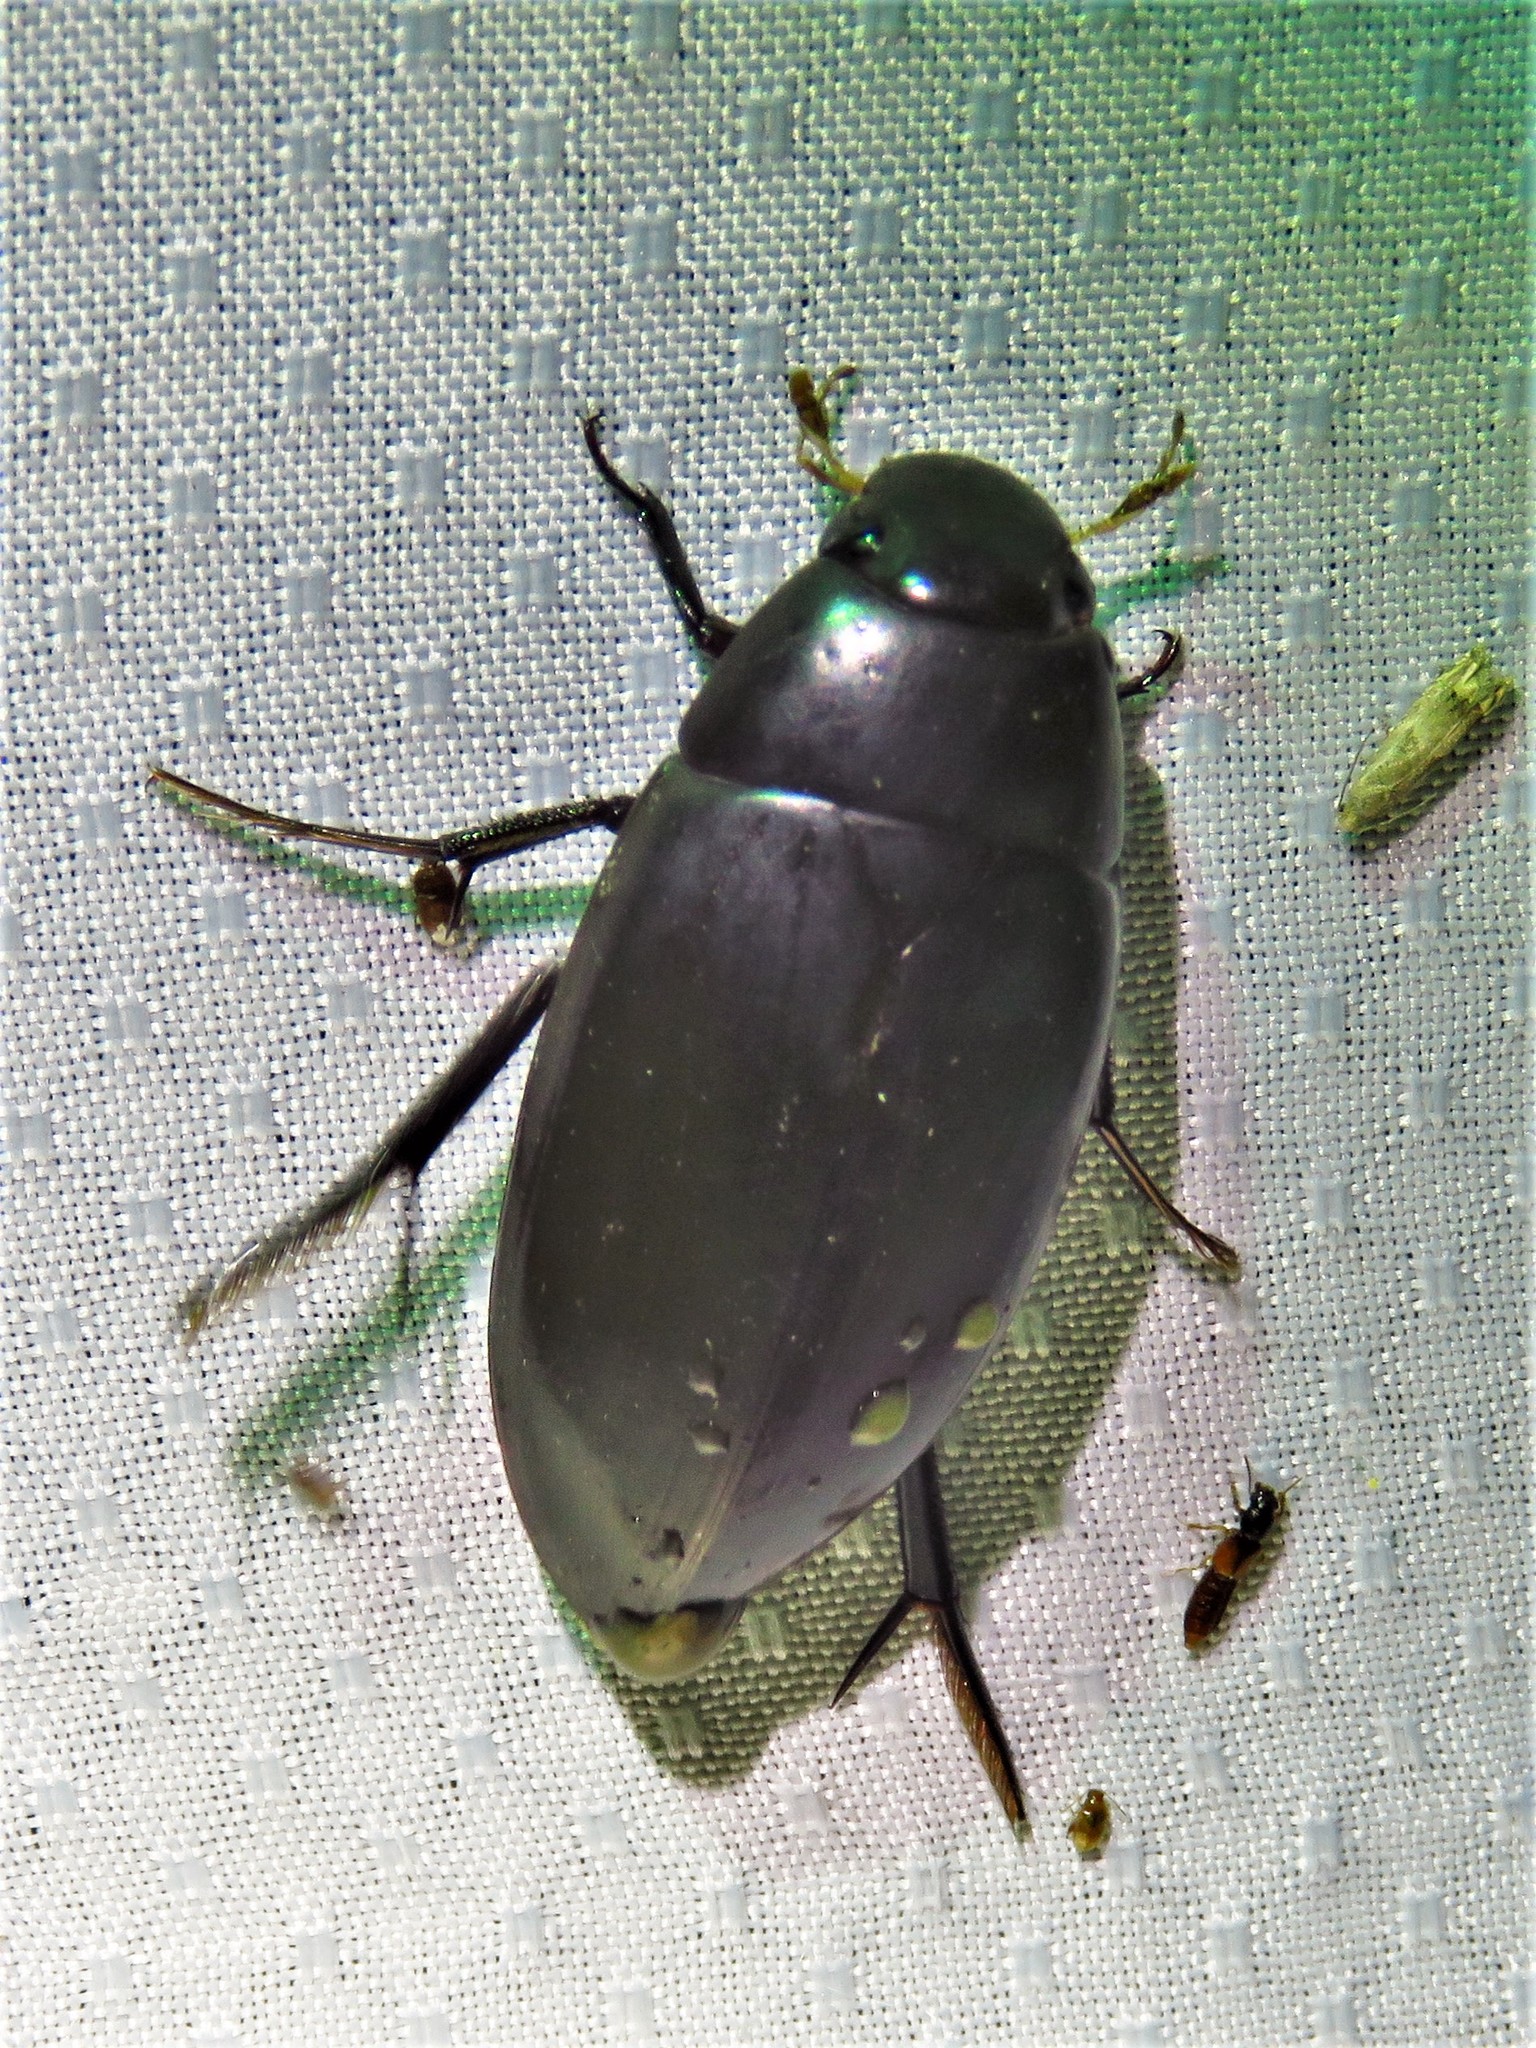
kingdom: Animalia
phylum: Arthropoda
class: Insecta
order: Coleoptera
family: Hydrophilidae
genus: Hydrophilus
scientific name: Hydrophilus triangularis
